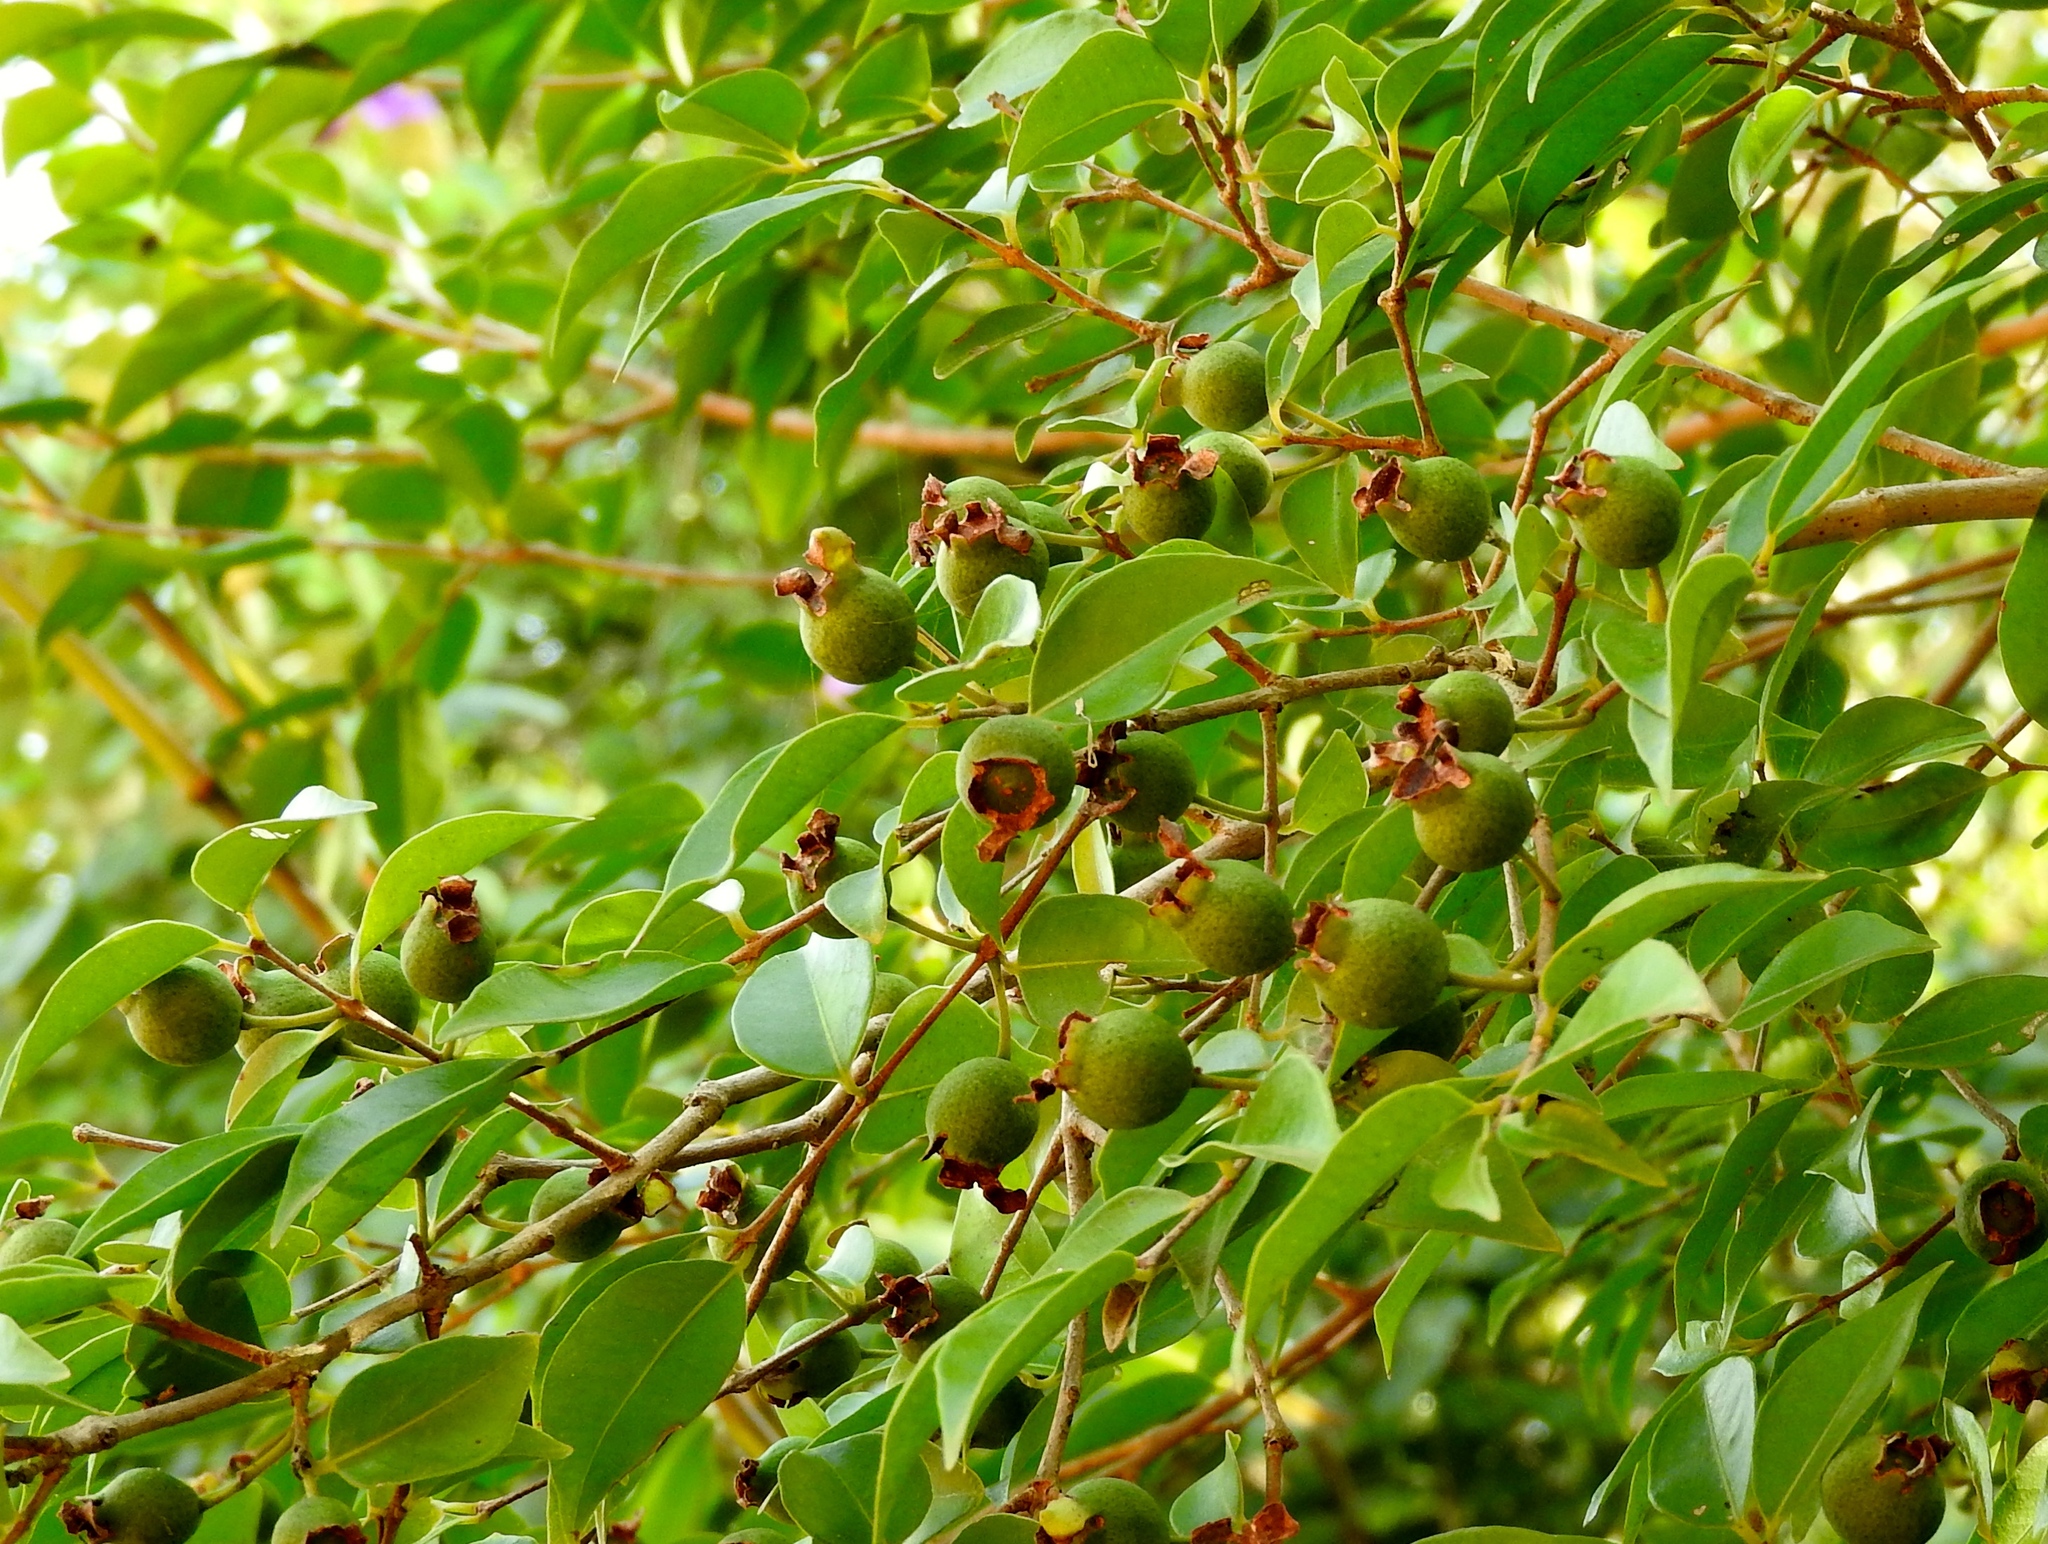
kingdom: Plantae
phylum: Tracheophyta
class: Magnoliopsida
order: Myrtales
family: Myrtaceae
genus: Psidium
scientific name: Psidium sartorianum
